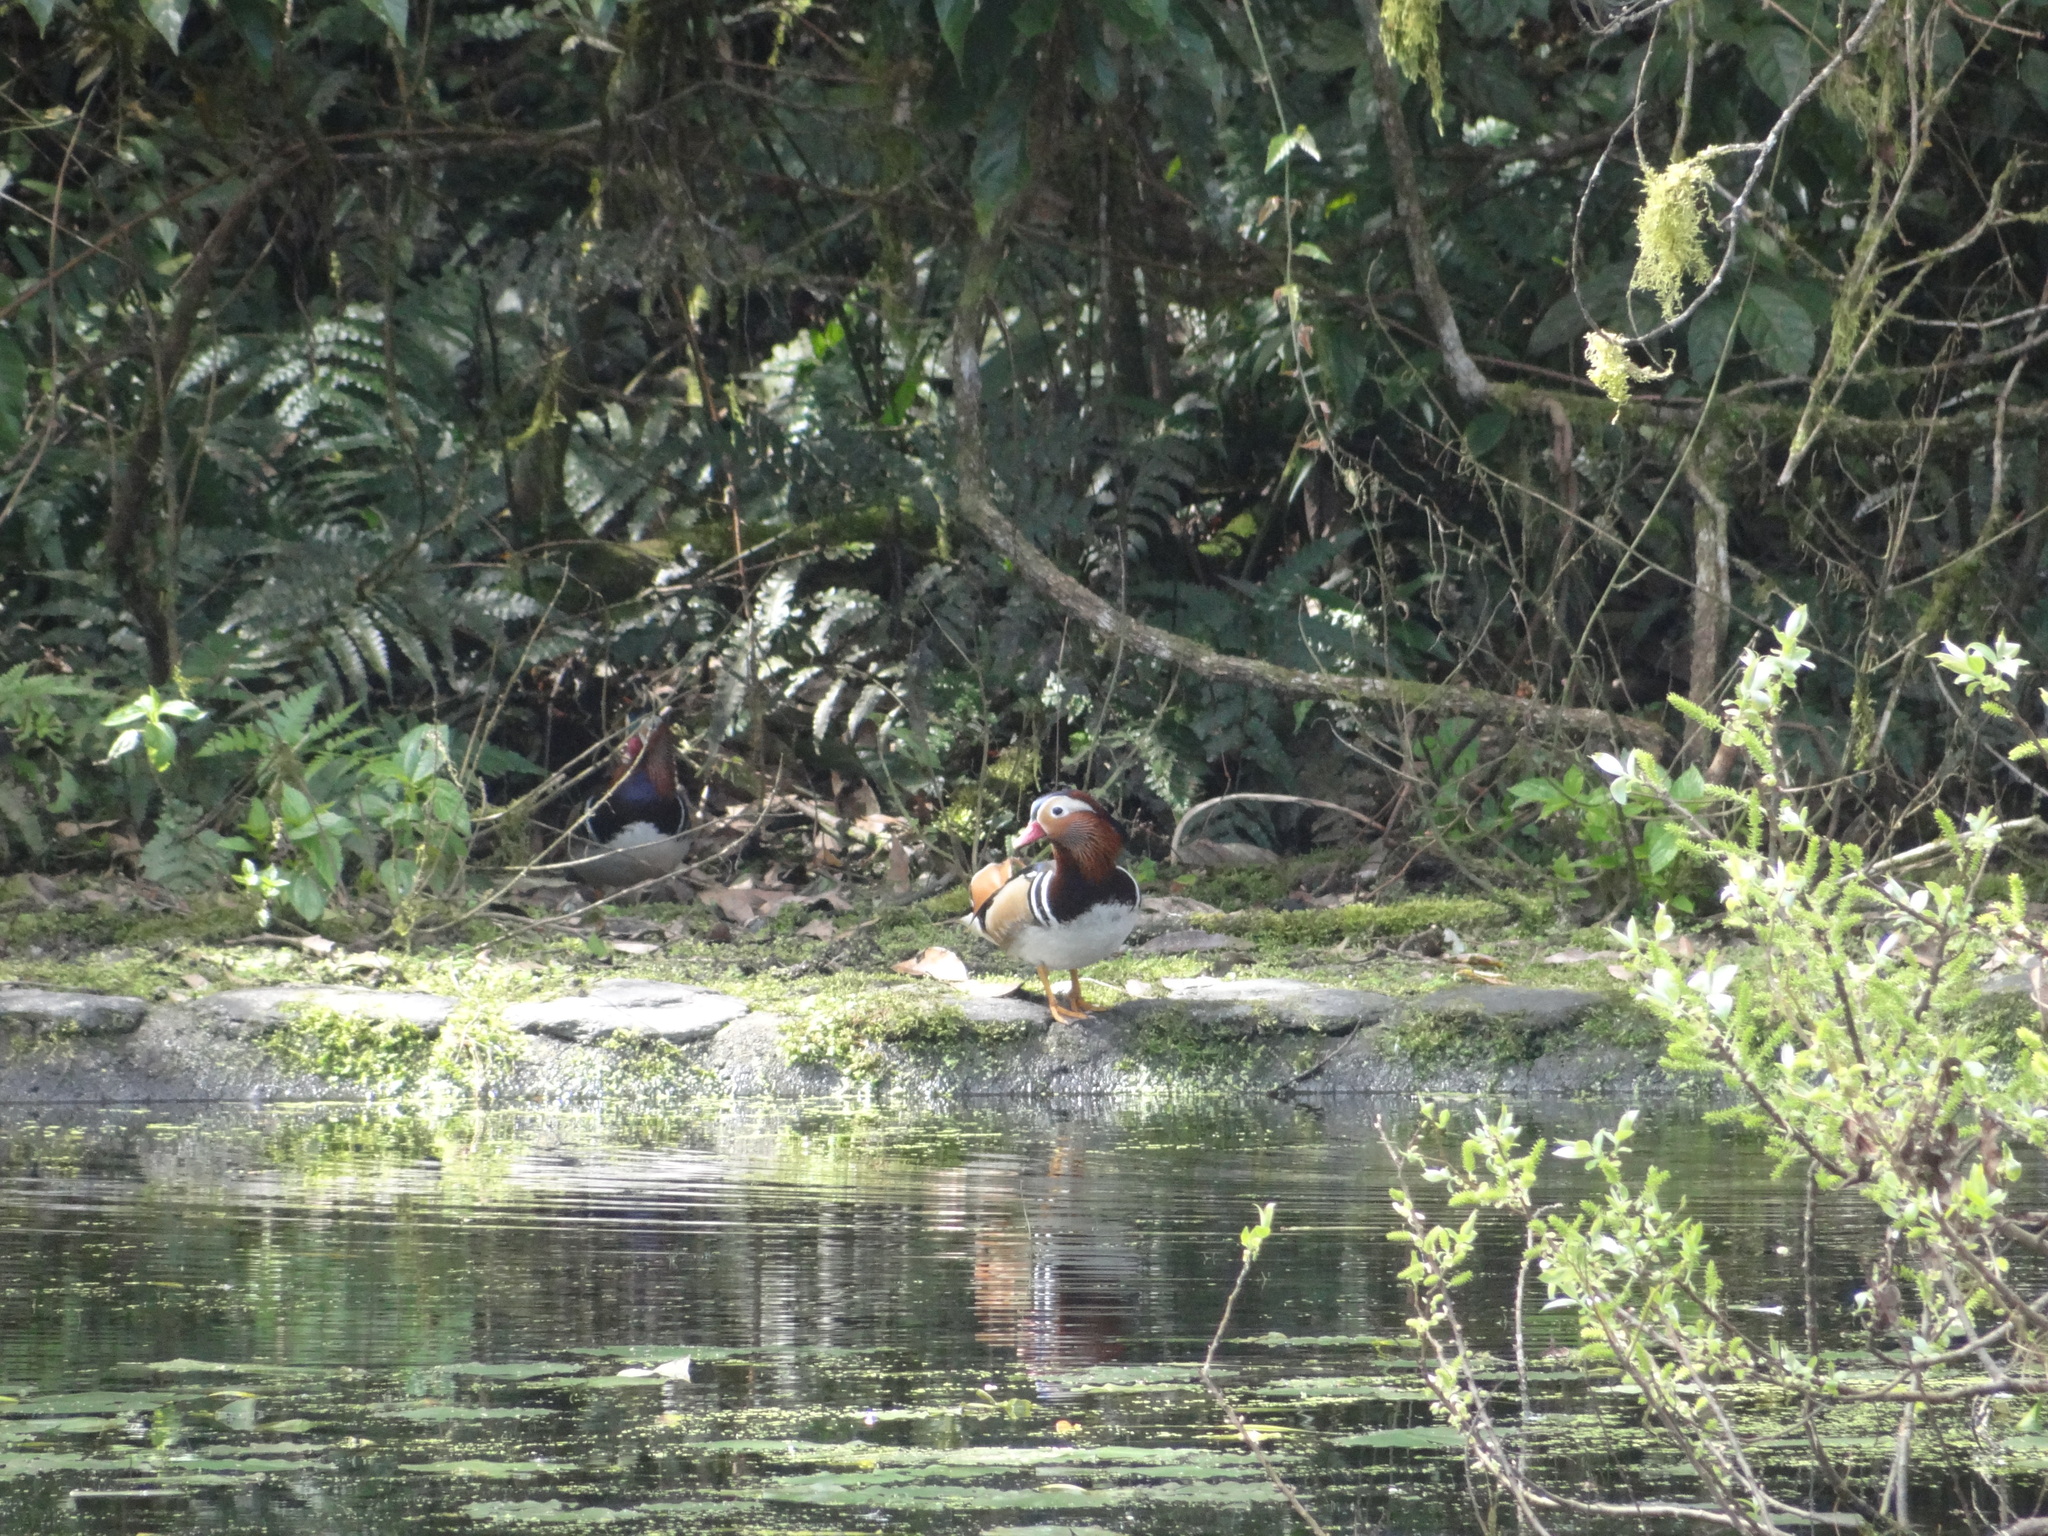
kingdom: Animalia
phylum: Chordata
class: Aves
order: Anseriformes
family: Anatidae
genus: Aix
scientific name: Aix galericulata
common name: Mandarin duck
